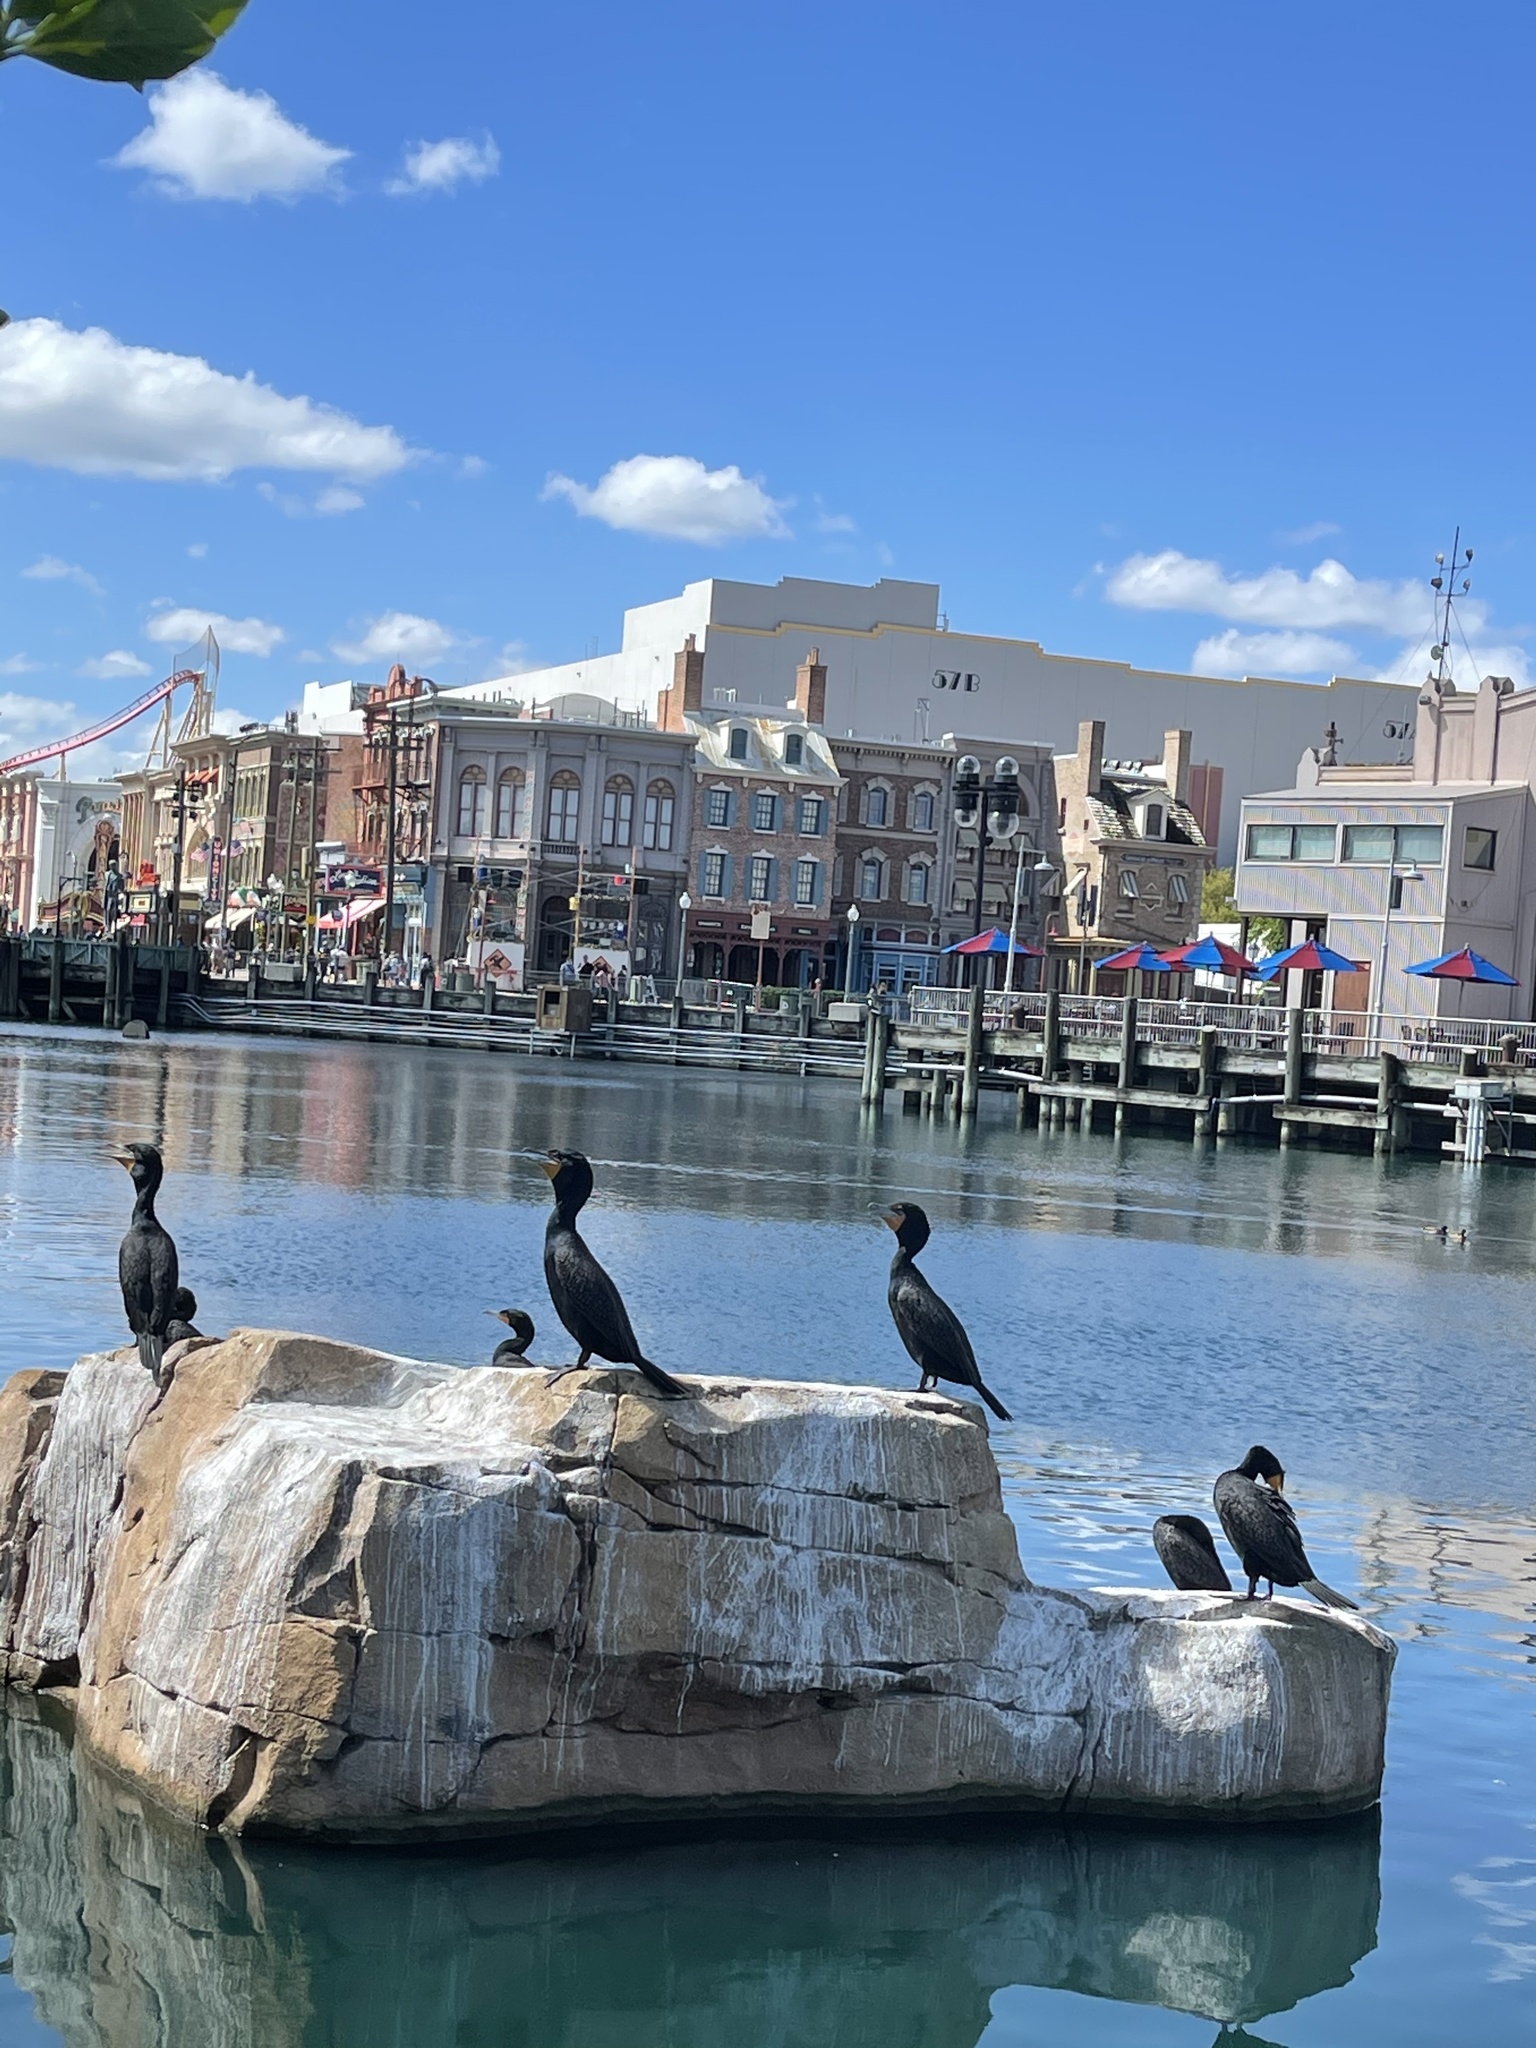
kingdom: Animalia
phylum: Chordata
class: Aves
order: Suliformes
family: Phalacrocoracidae
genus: Phalacrocorax
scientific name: Phalacrocorax auritus
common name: Double-crested cormorant
